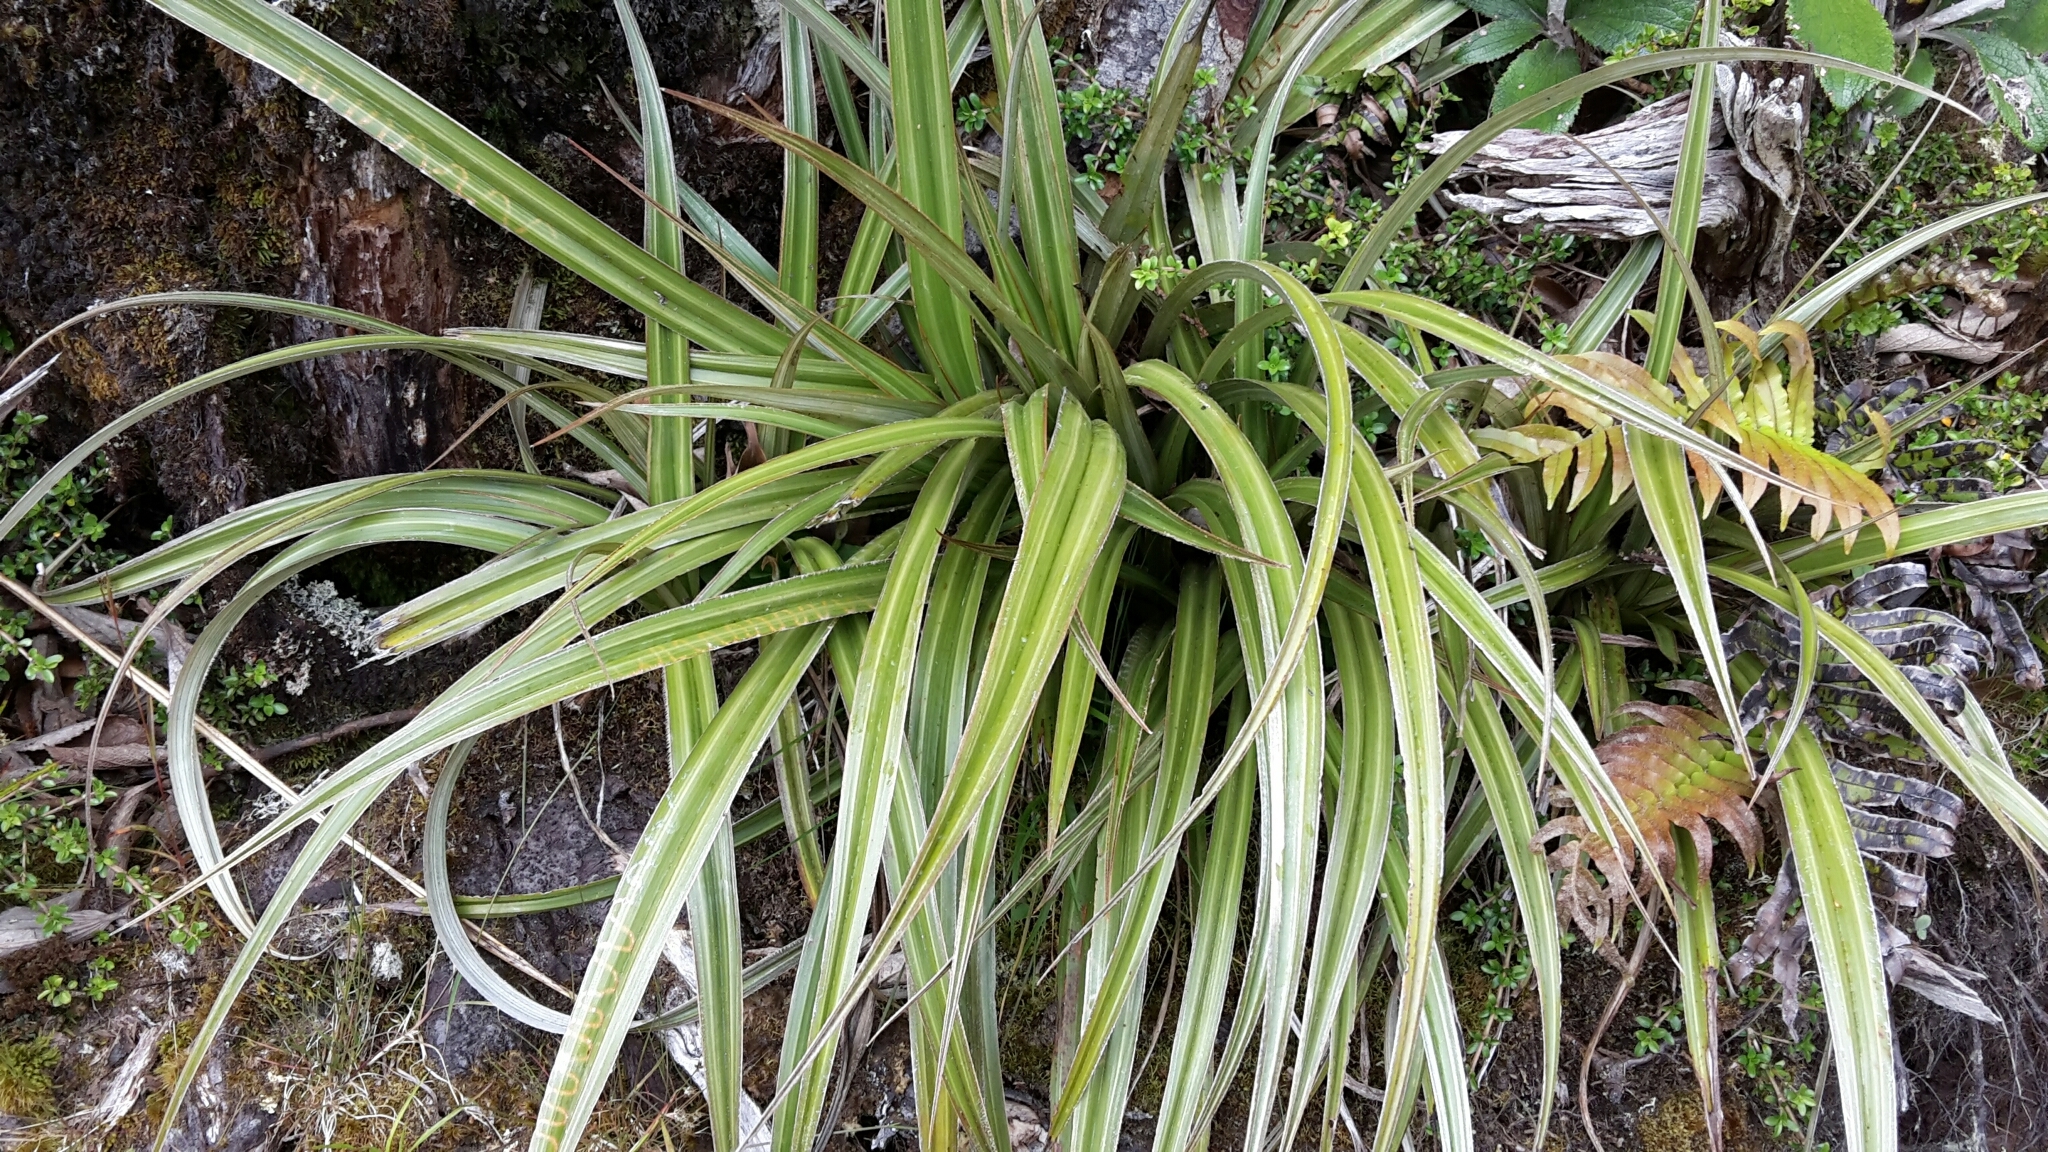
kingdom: Plantae
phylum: Tracheophyta
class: Liliopsida
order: Asparagales
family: Asteliaceae
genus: Astelia
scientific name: Astelia nervosa
